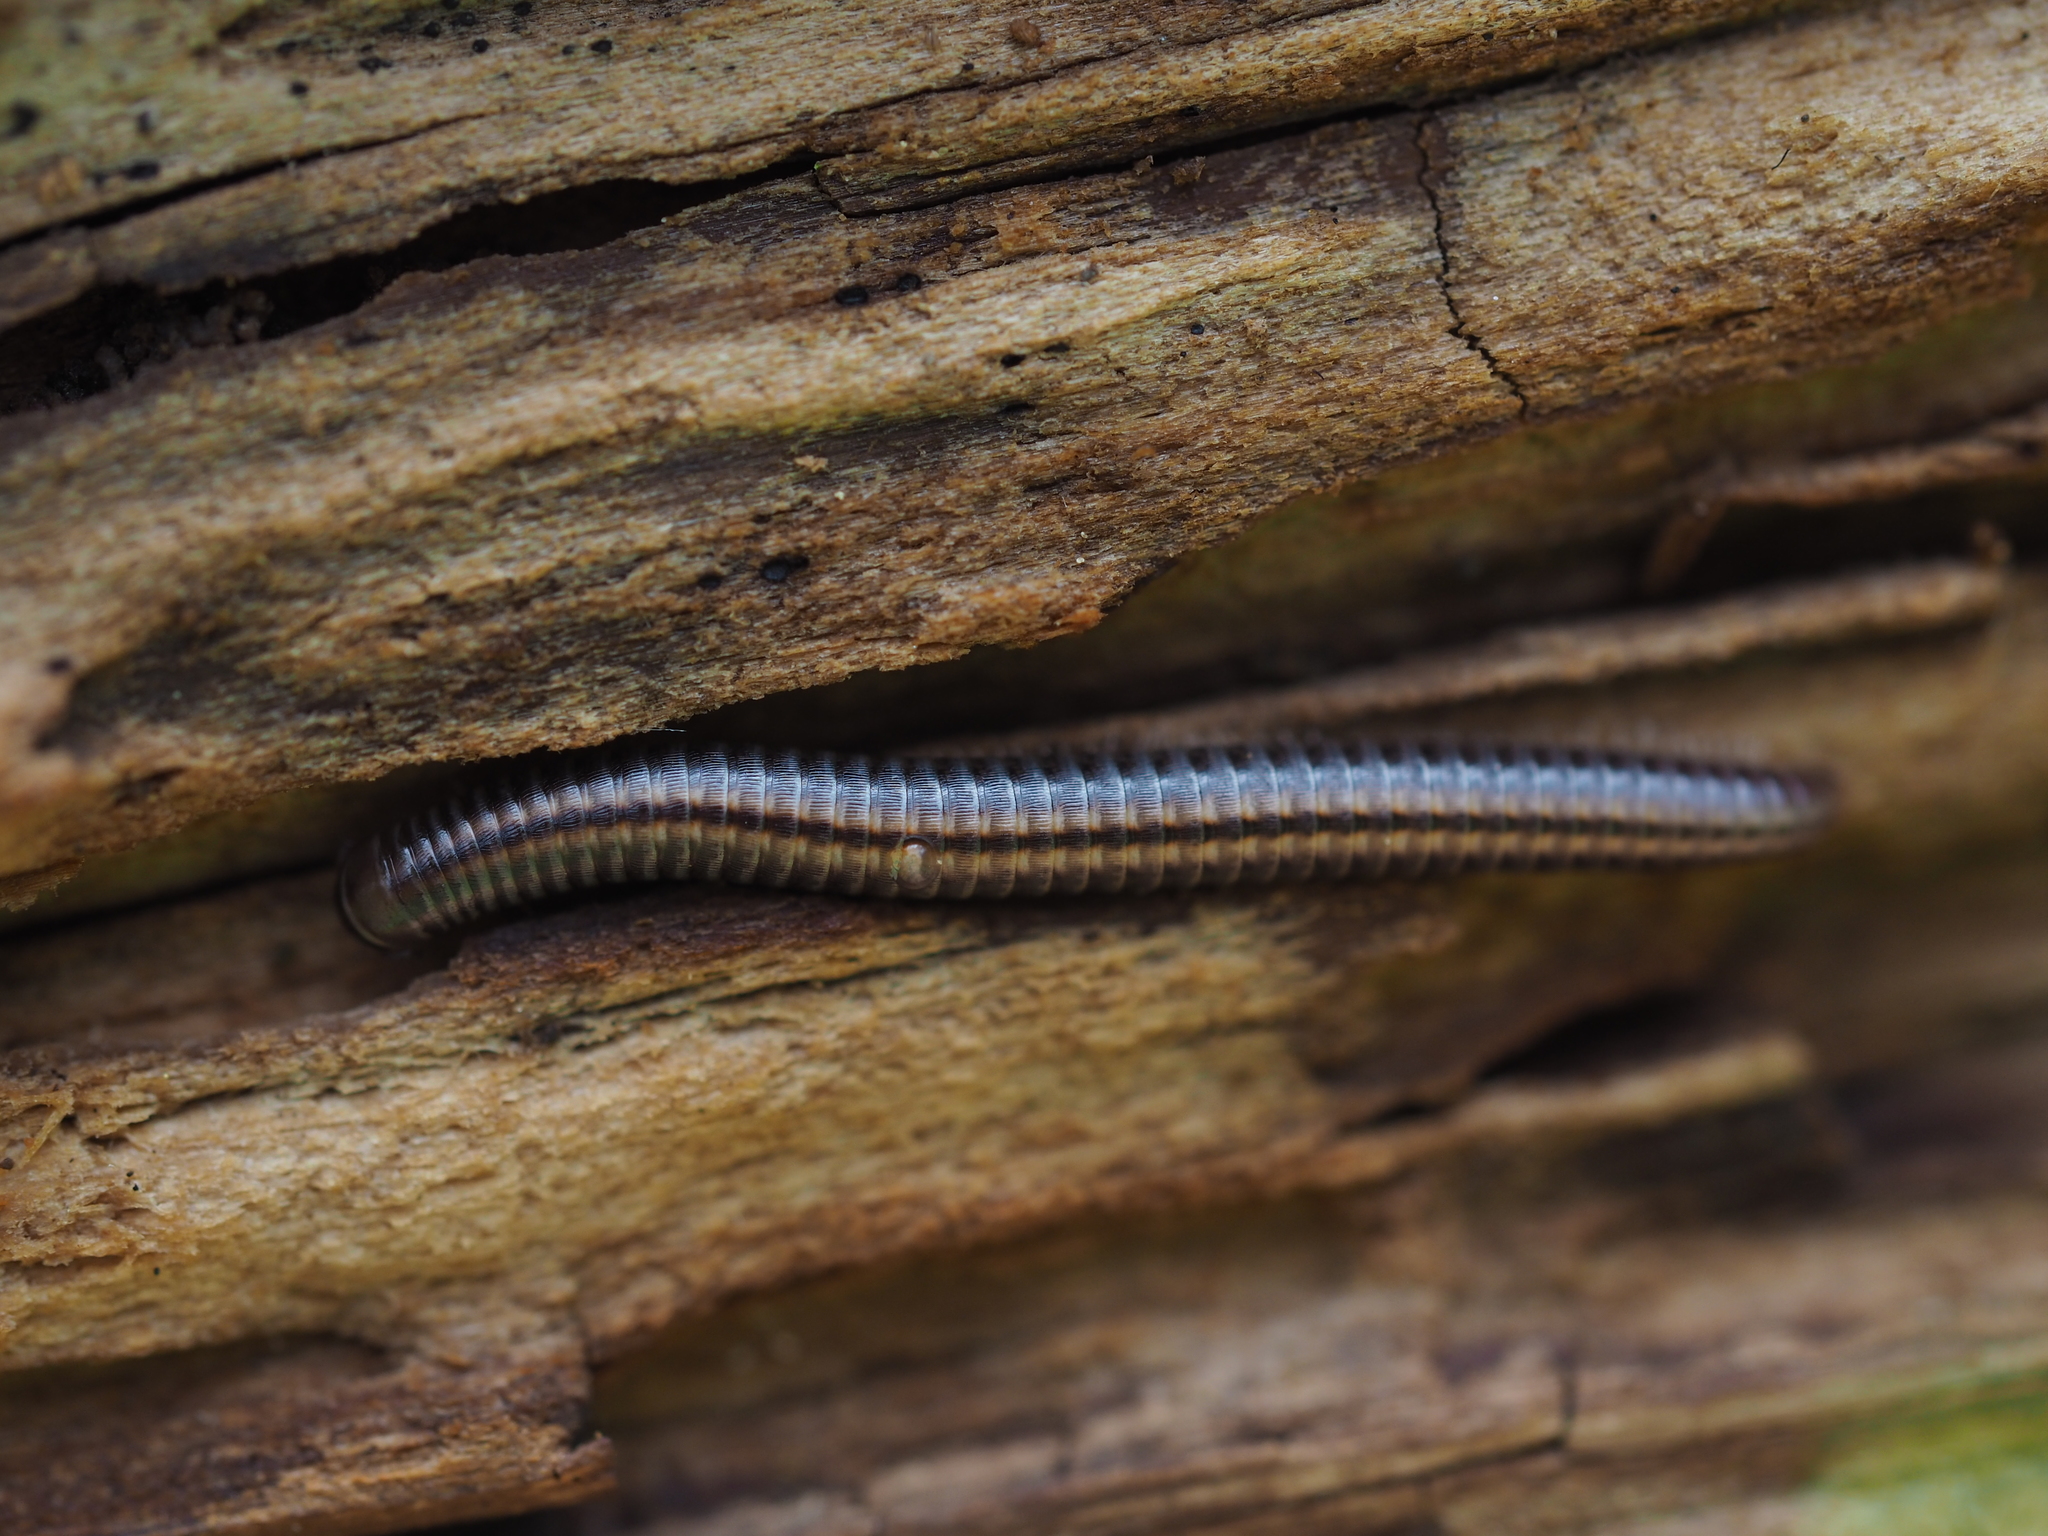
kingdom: Animalia
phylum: Arthropoda
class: Diplopoda
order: Julida
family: Julidae
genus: Ommatoiulus
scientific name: Ommatoiulus sabulosus
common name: Striped millipede
